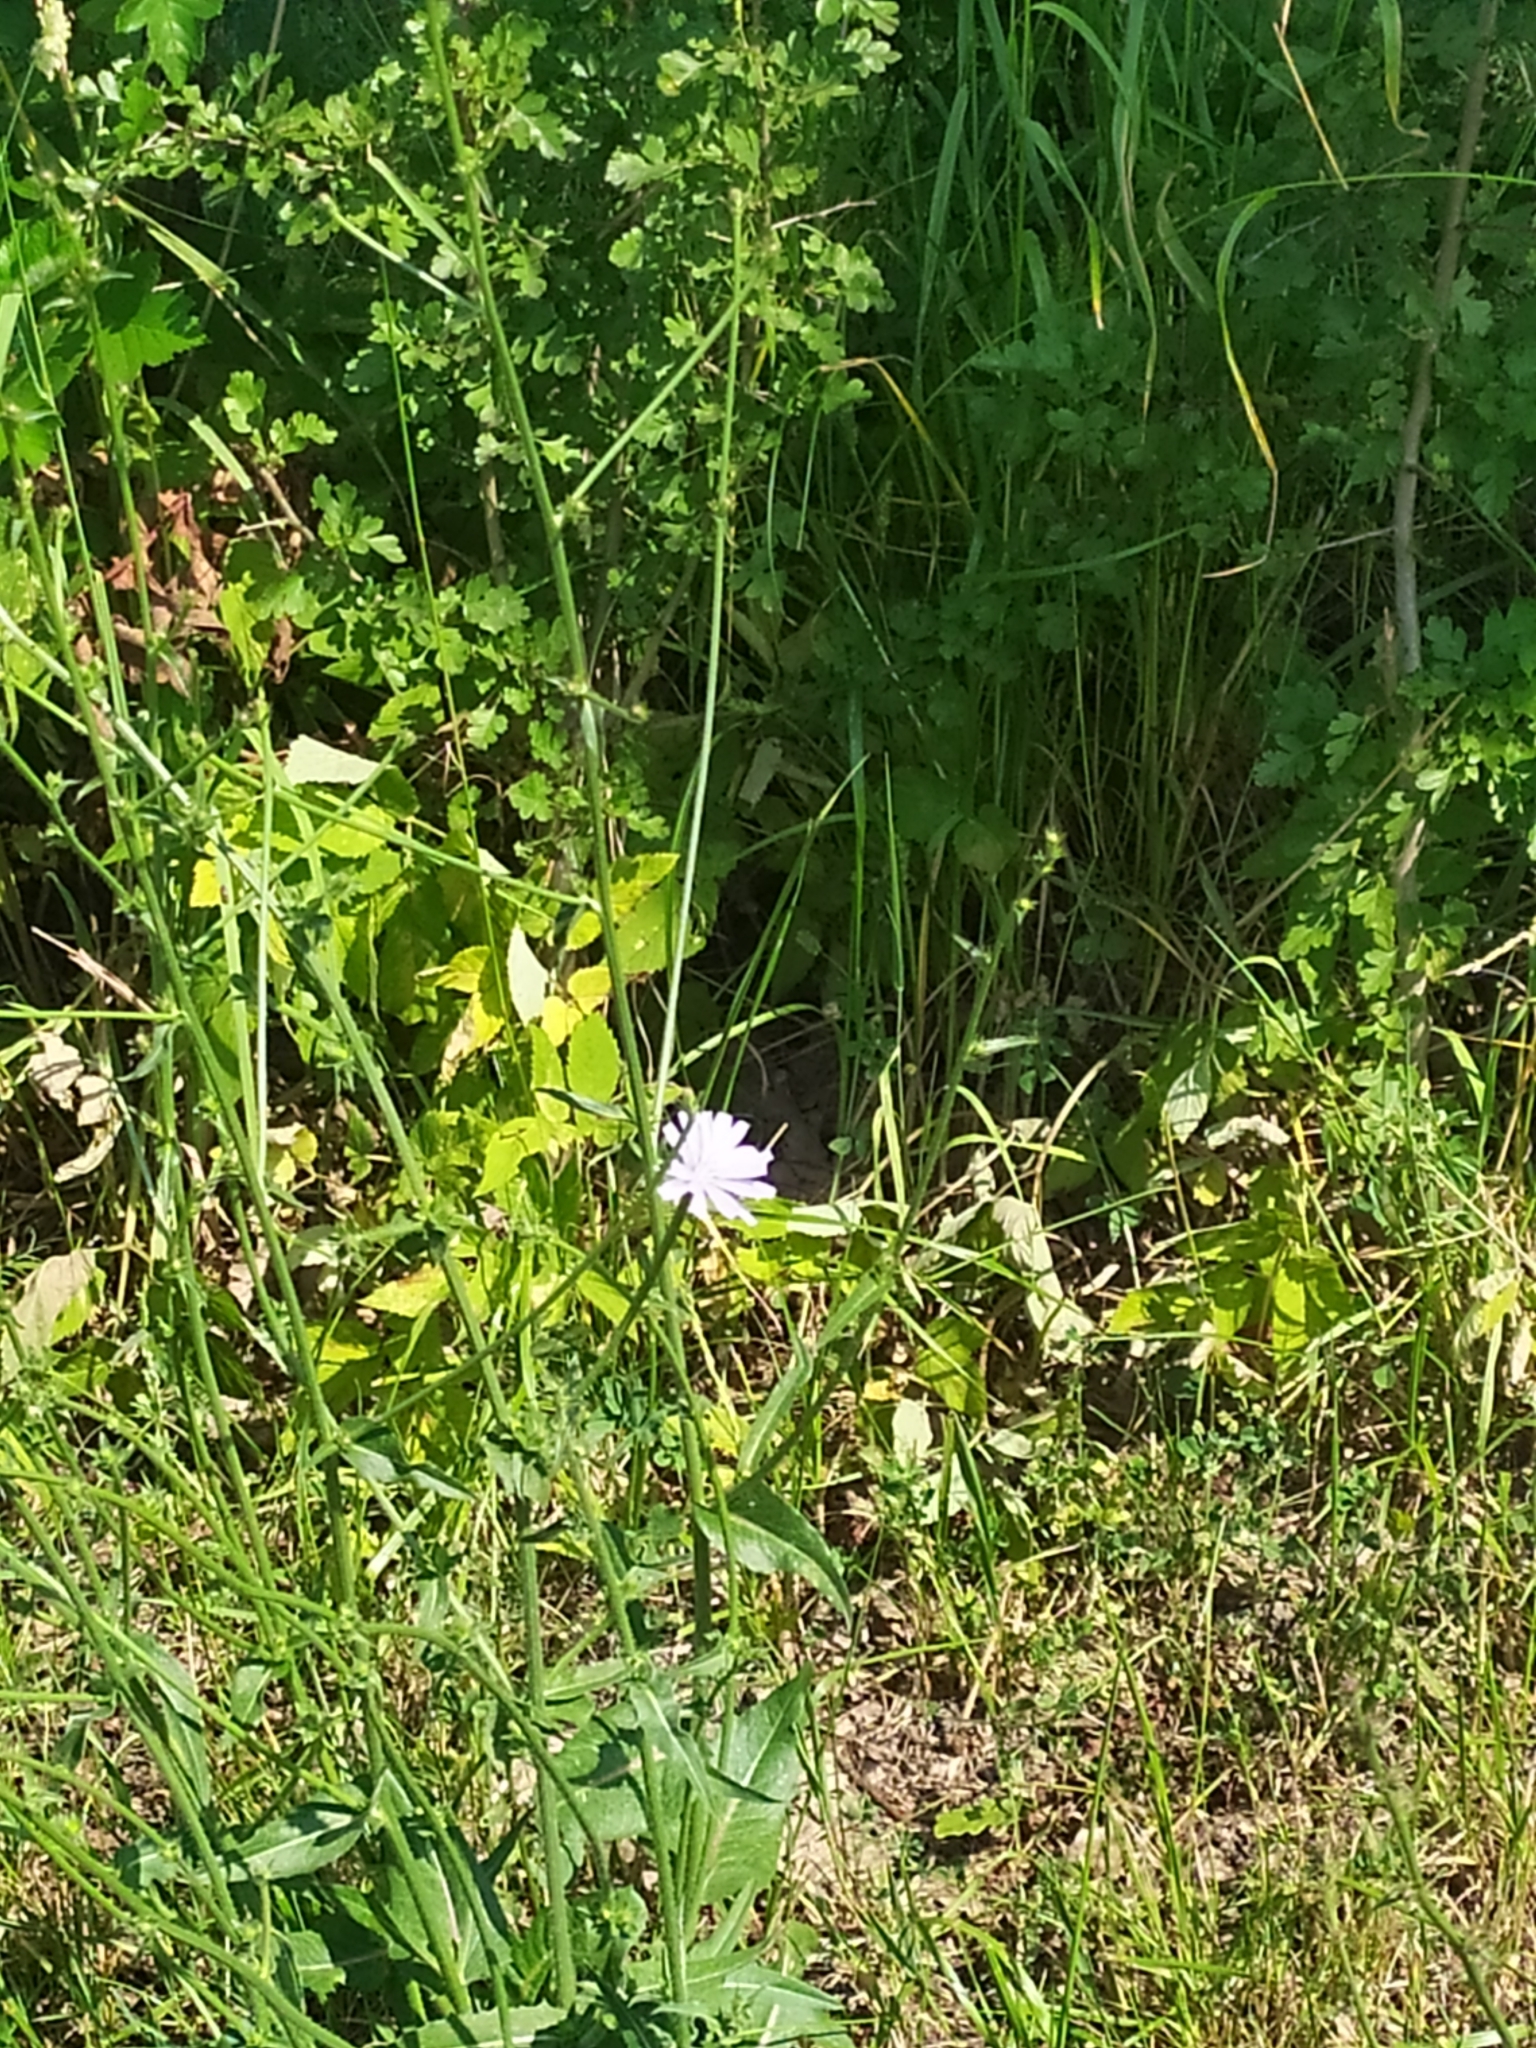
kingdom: Plantae
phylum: Tracheophyta
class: Magnoliopsida
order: Asterales
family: Asteraceae
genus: Cichorium
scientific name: Cichorium intybus
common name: Chicory
